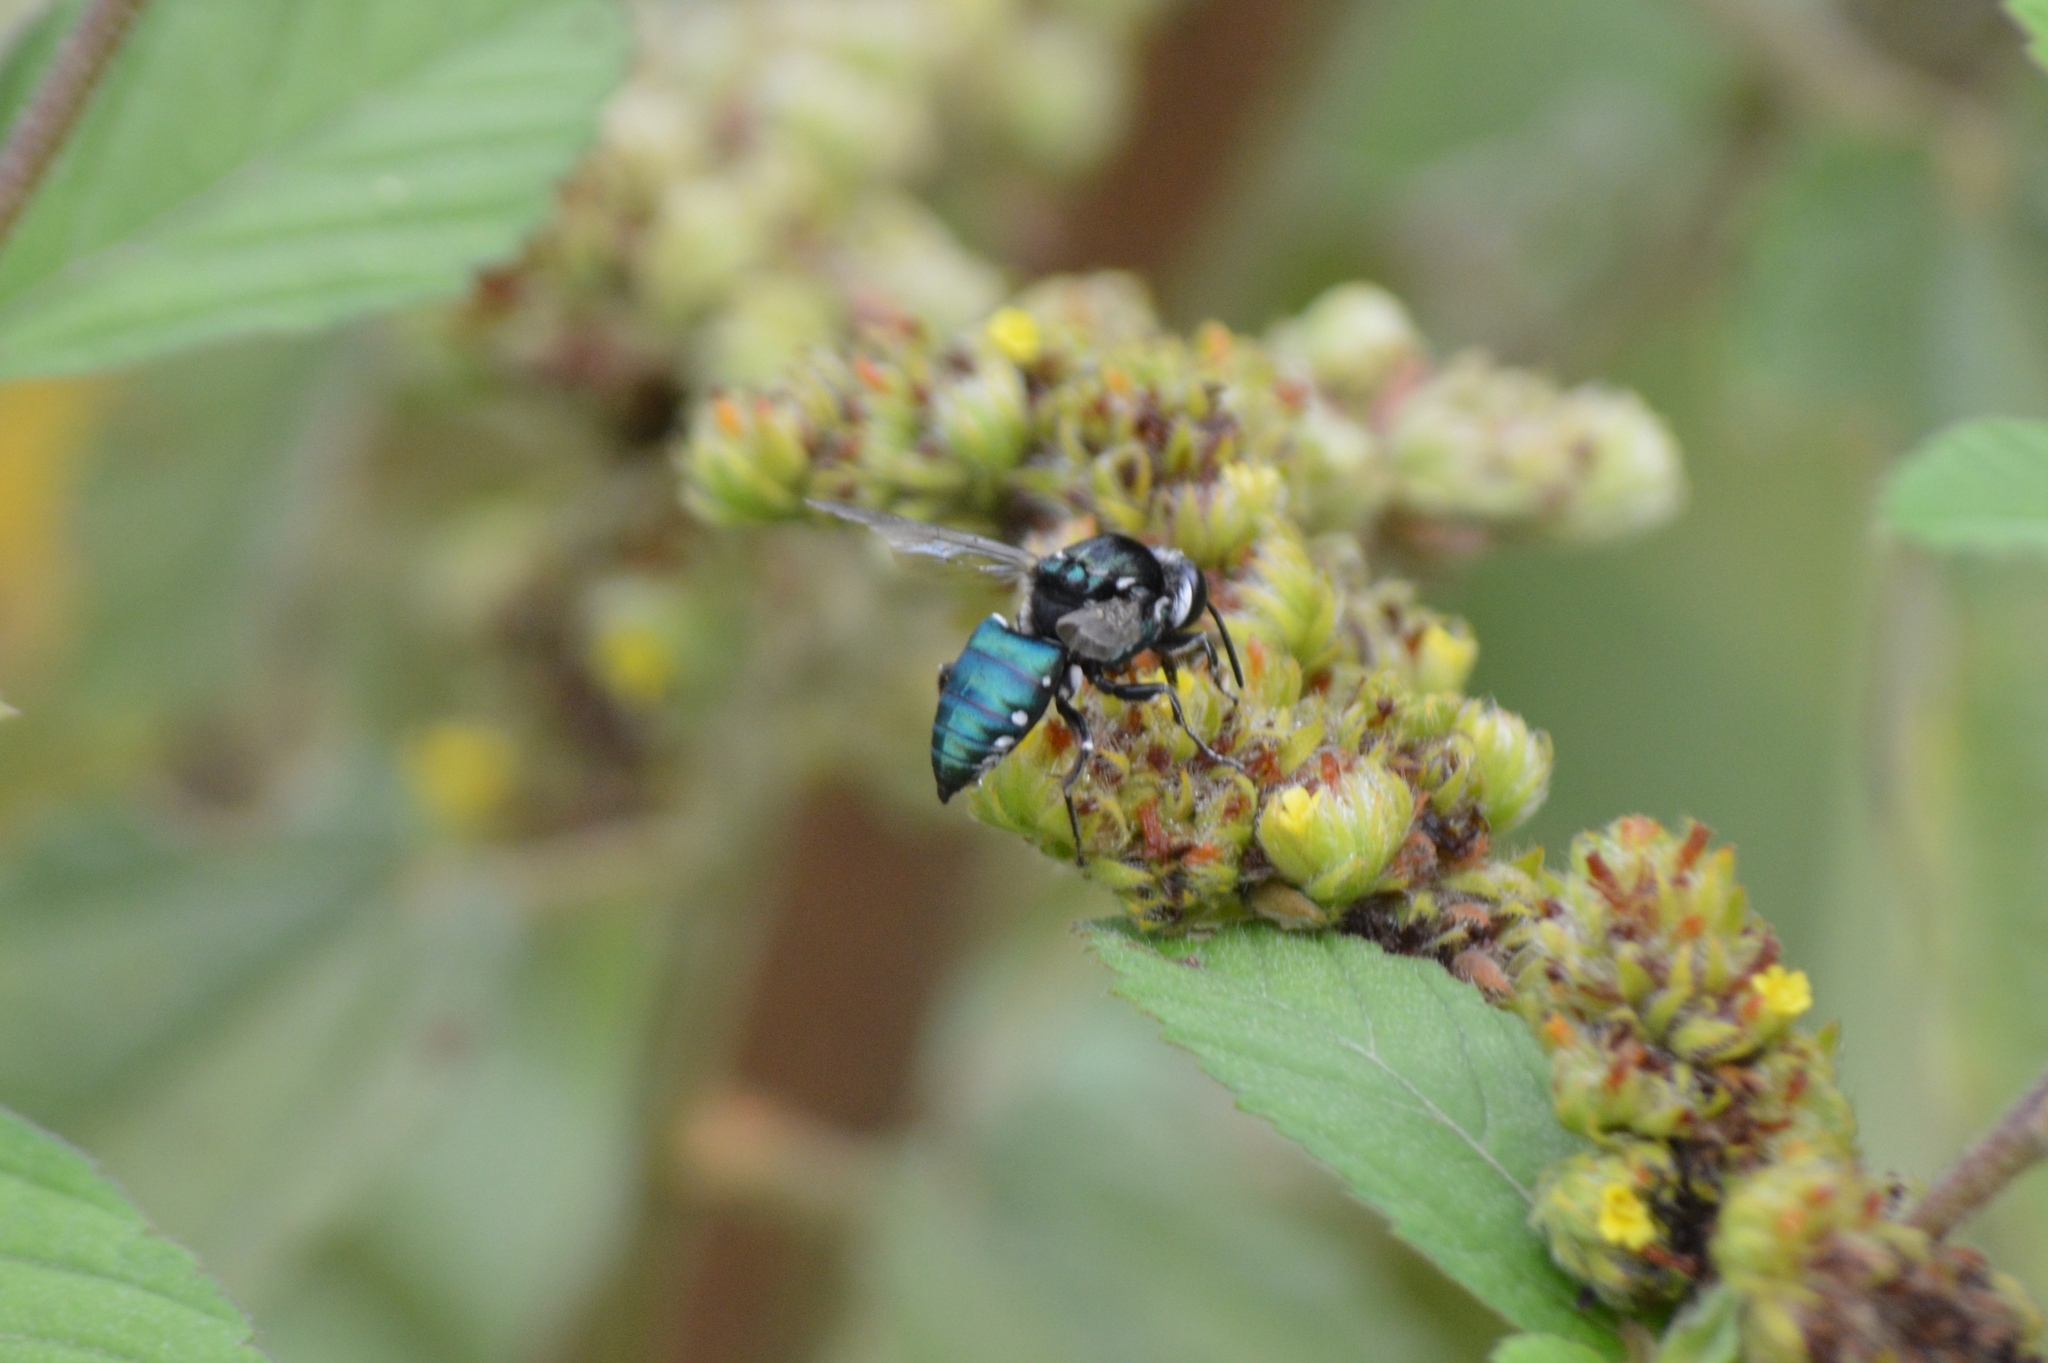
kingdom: Animalia
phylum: Arthropoda
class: Insecta
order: Hymenoptera
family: Apidae
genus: Thalestria
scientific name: Thalestria spinosa
